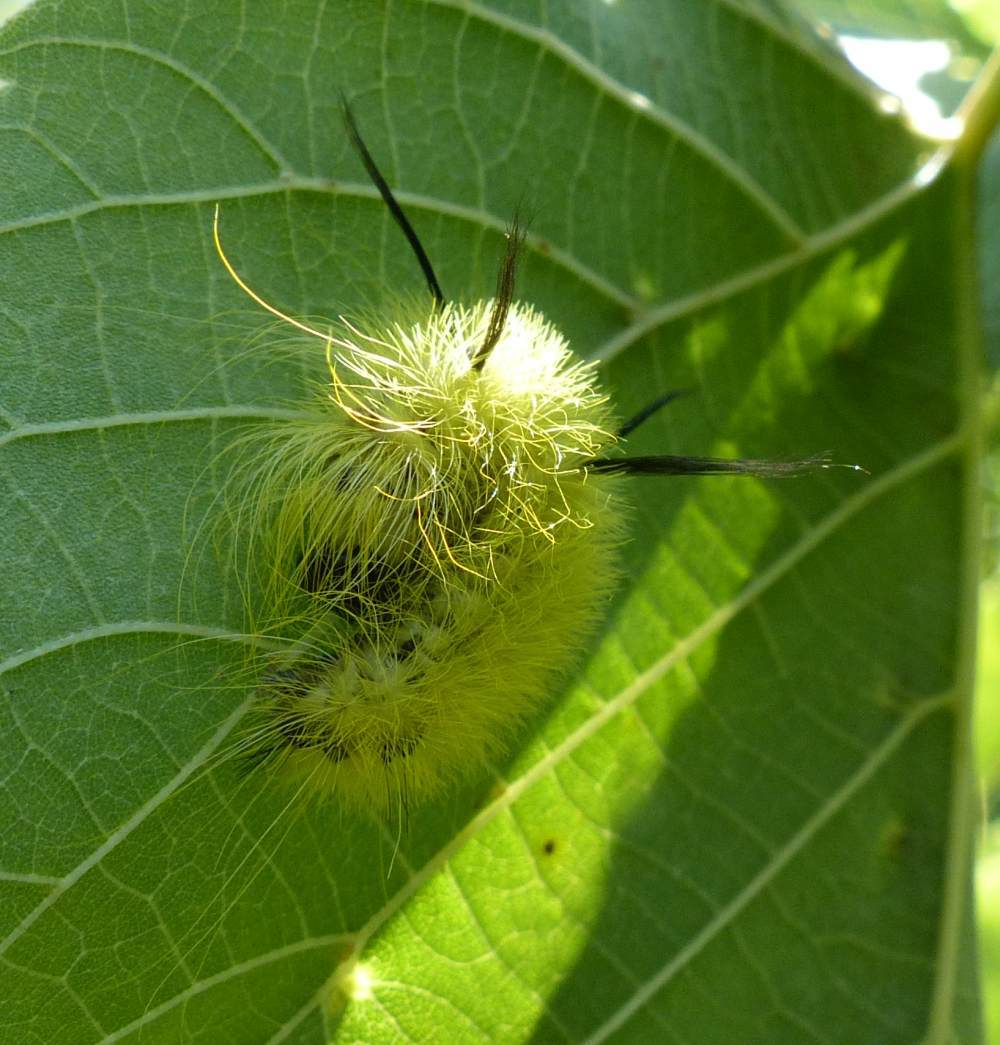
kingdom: Animalia
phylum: Arthropoda
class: Insecta
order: Lepidoptera
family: Noctuidae
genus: Acronicta
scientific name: Acronicta americana
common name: American dagger
